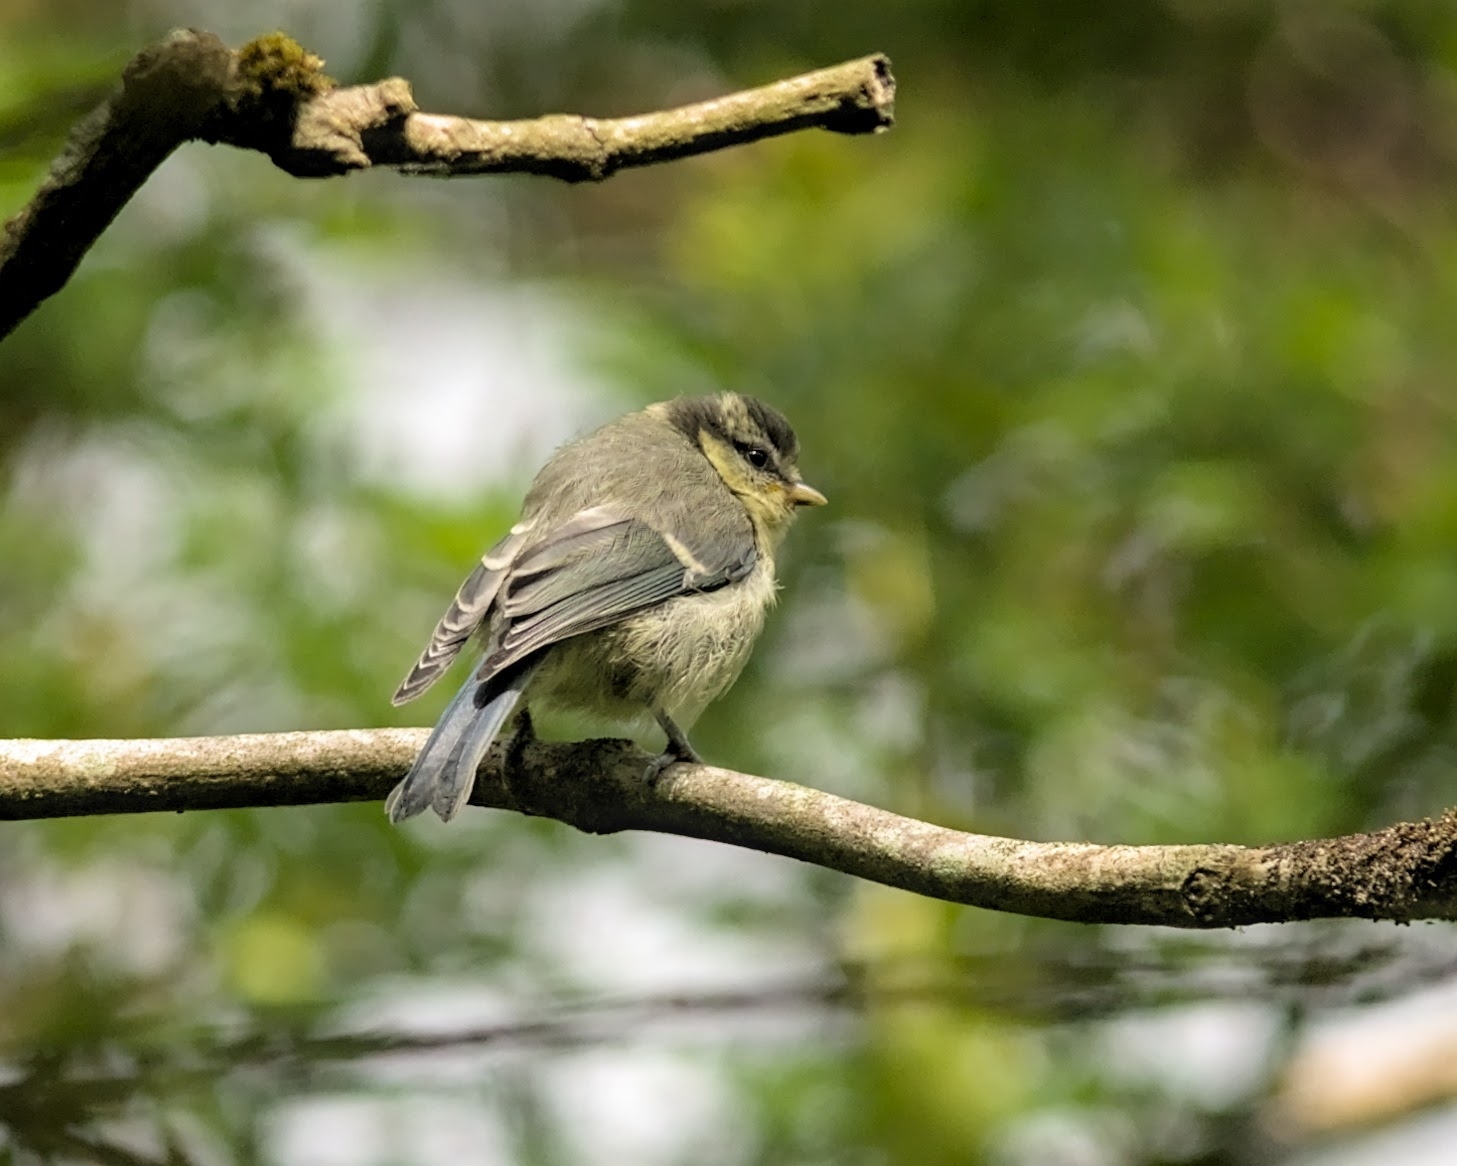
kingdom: Animalia
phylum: Chordata
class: Aves
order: Passeriformes
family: Paridae
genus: Cyanistes
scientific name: Cyanistes caeruleus
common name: Eurasian blue tit
